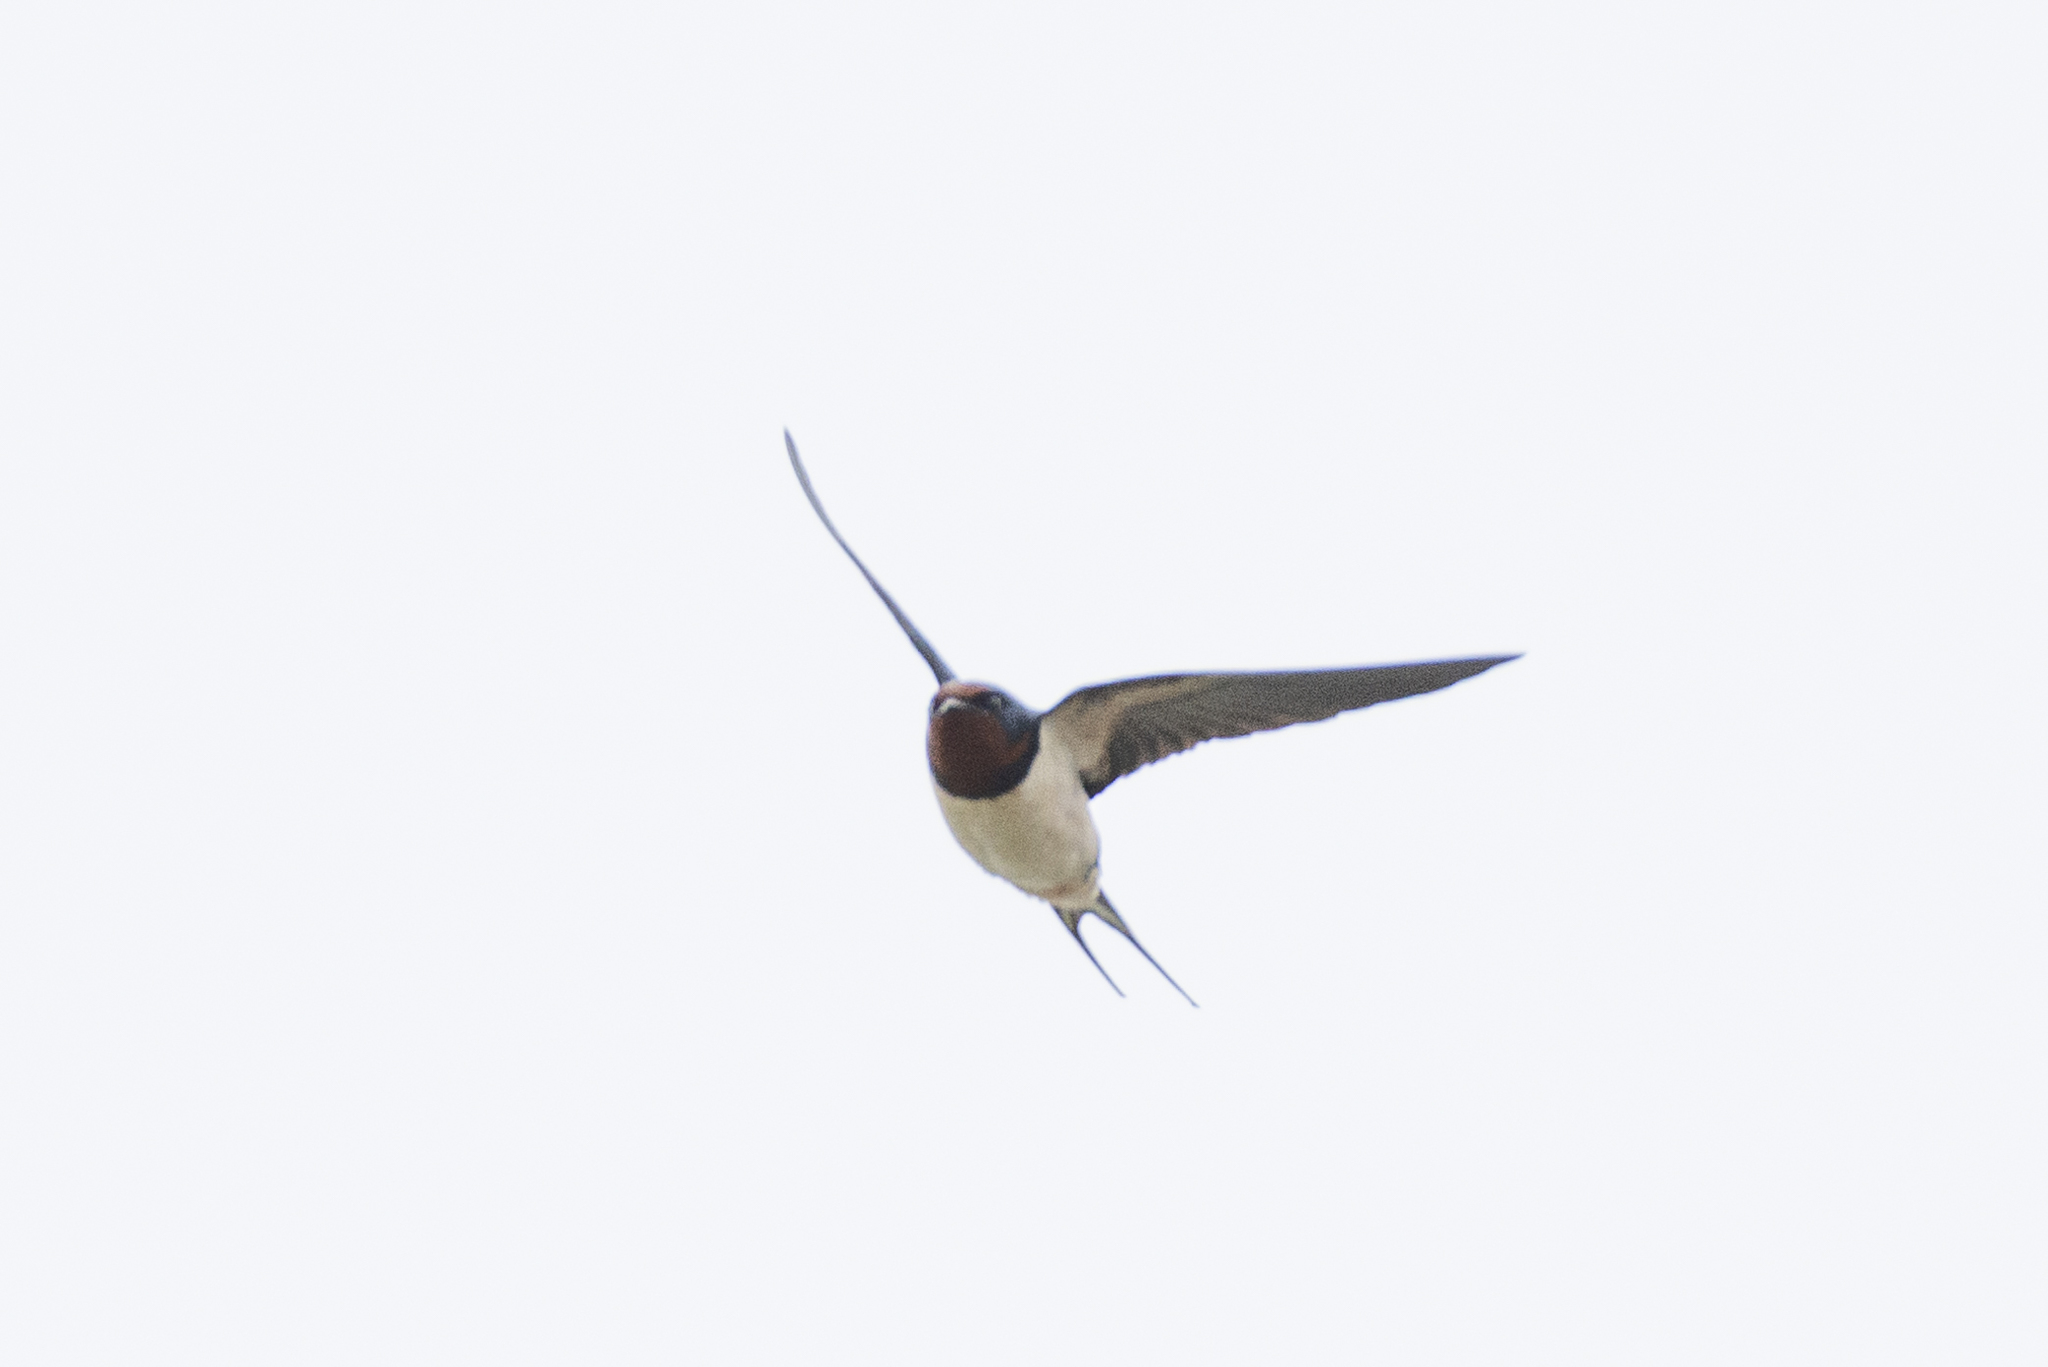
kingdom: Animalia
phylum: Chordata
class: Aves
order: Passeriformes
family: Hirundinidae
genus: Hirundo
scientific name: Hirundo rustica
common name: Barn swallow
